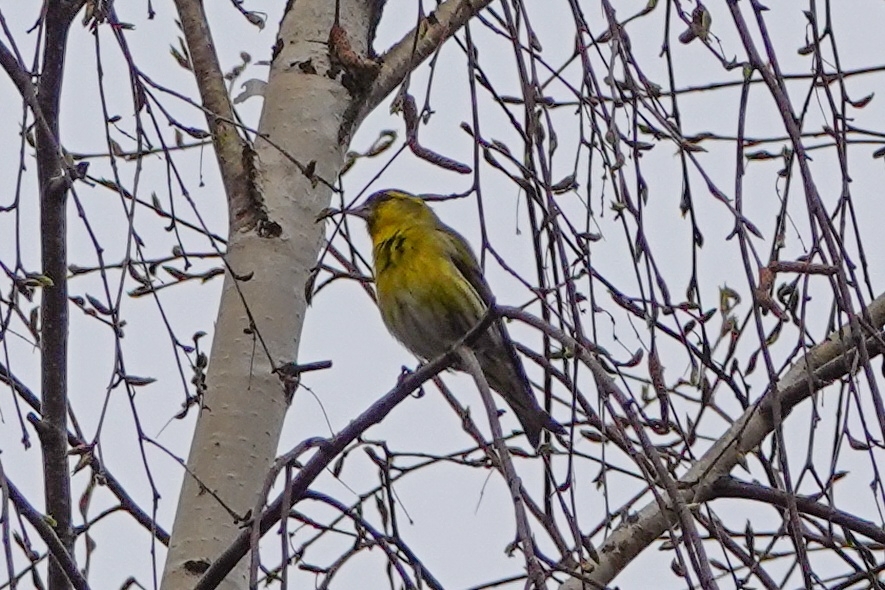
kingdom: Animalia
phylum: Chordata
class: Aves
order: Passeriformes
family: Fringillidae
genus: Spinus
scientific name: Spinus spinus
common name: Eurasian siskin
